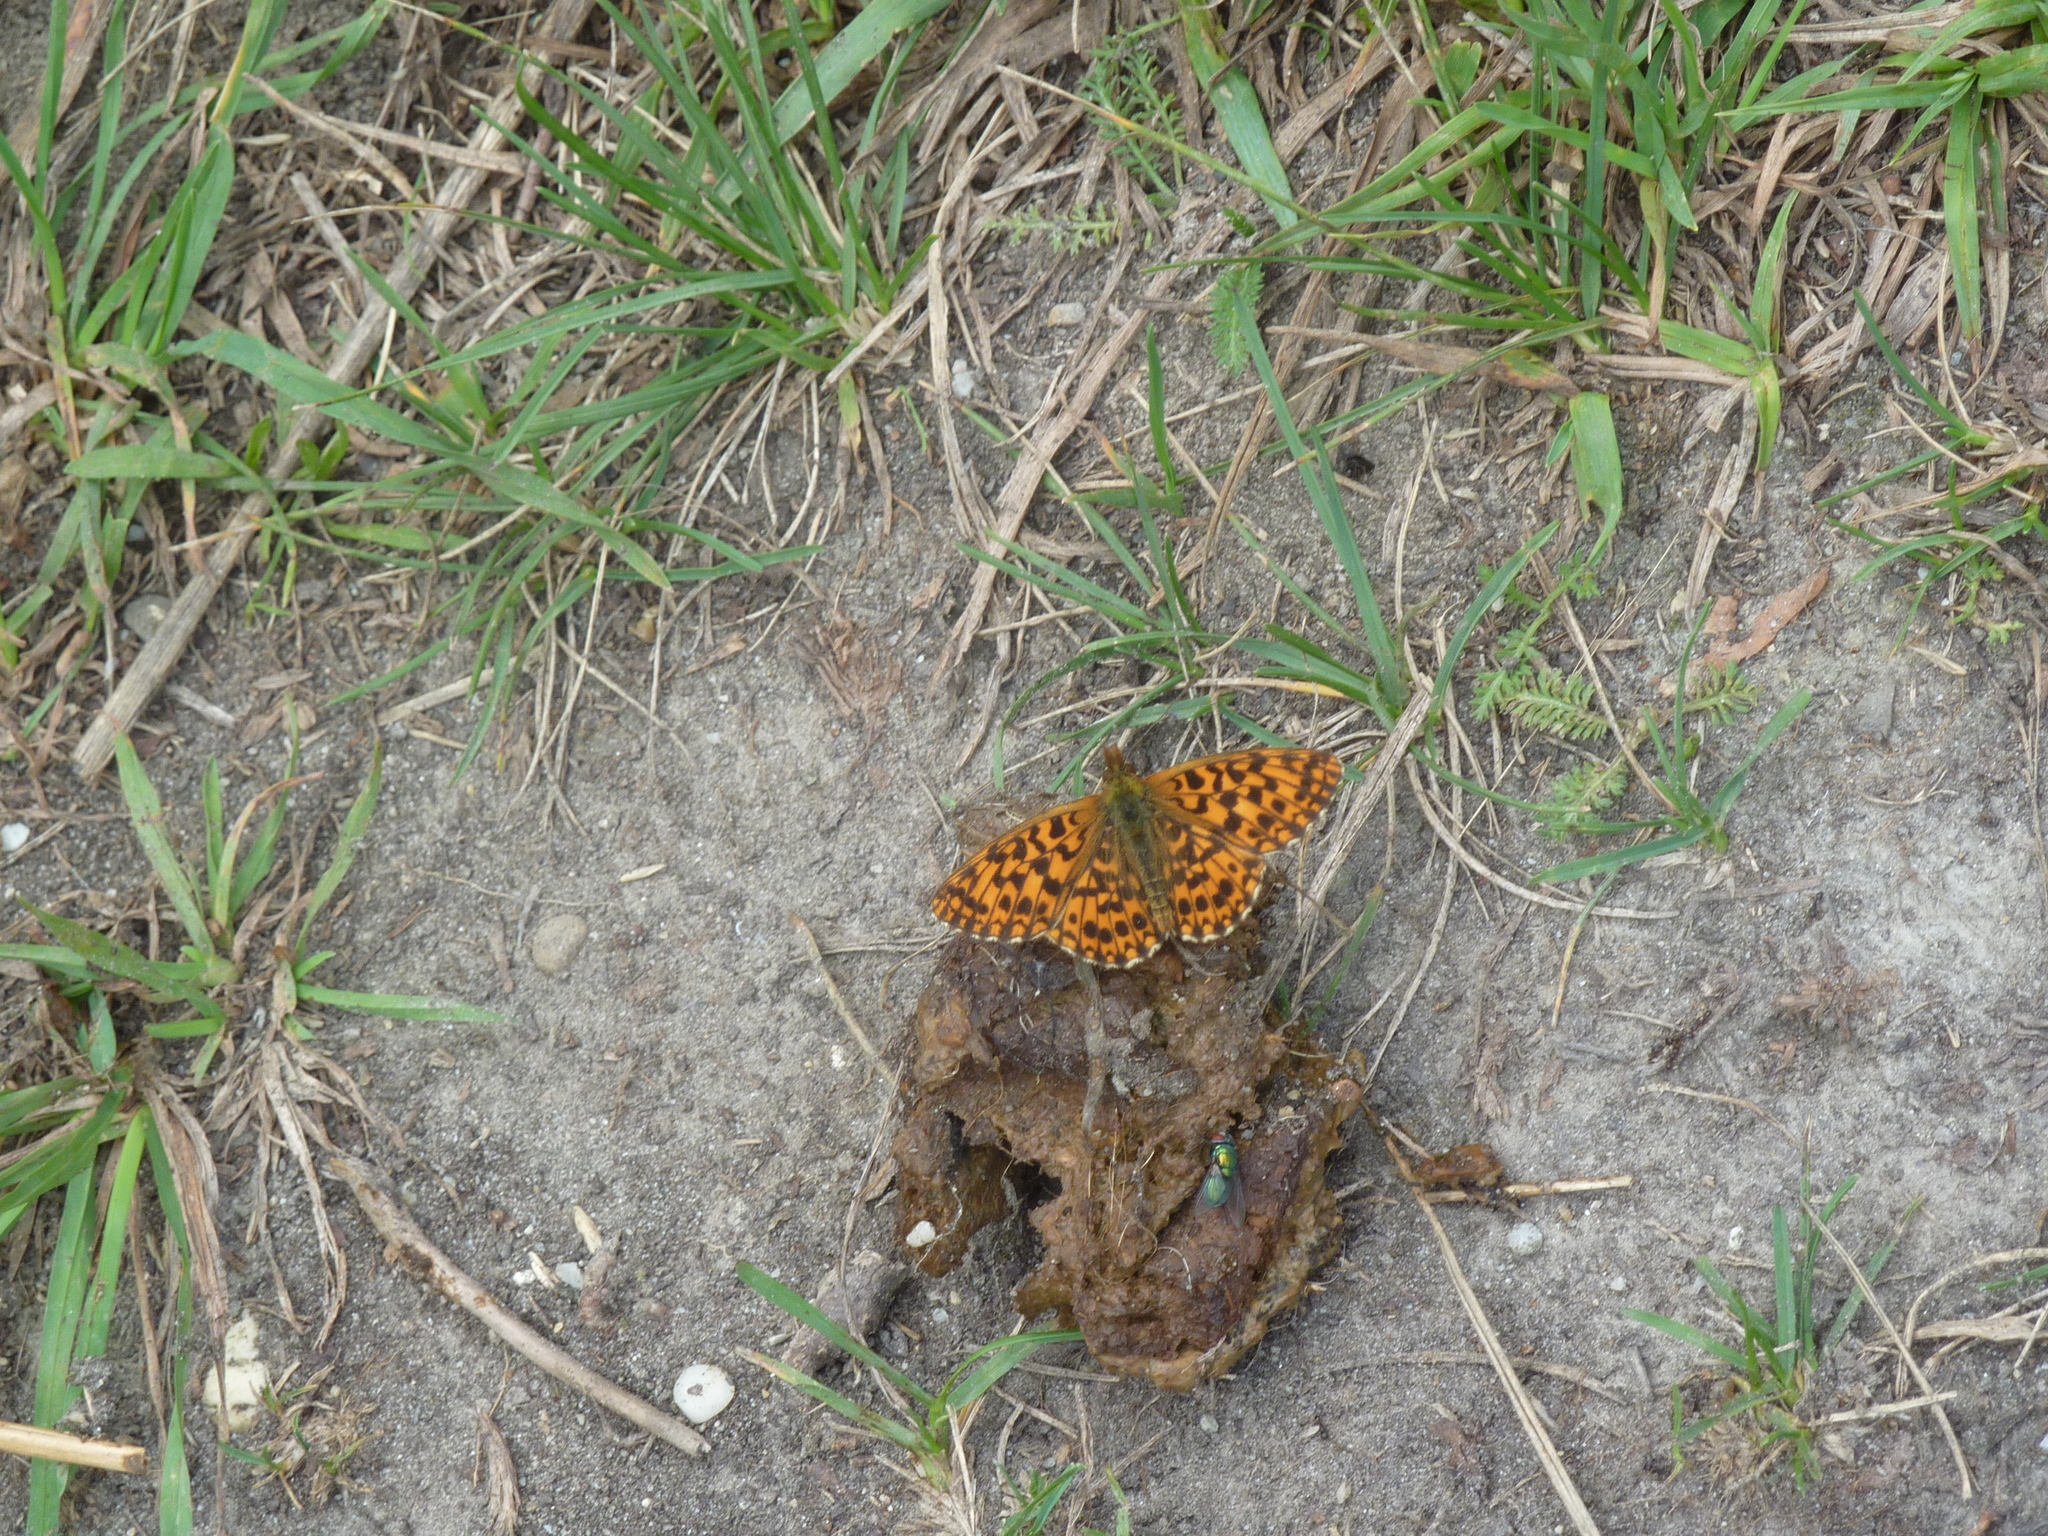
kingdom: Animalia
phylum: Arthropoda
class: Insecta
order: Lepidoptera
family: Nymphalidae
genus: Boloria
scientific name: Boloria dia
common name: Weaver's fritillary
